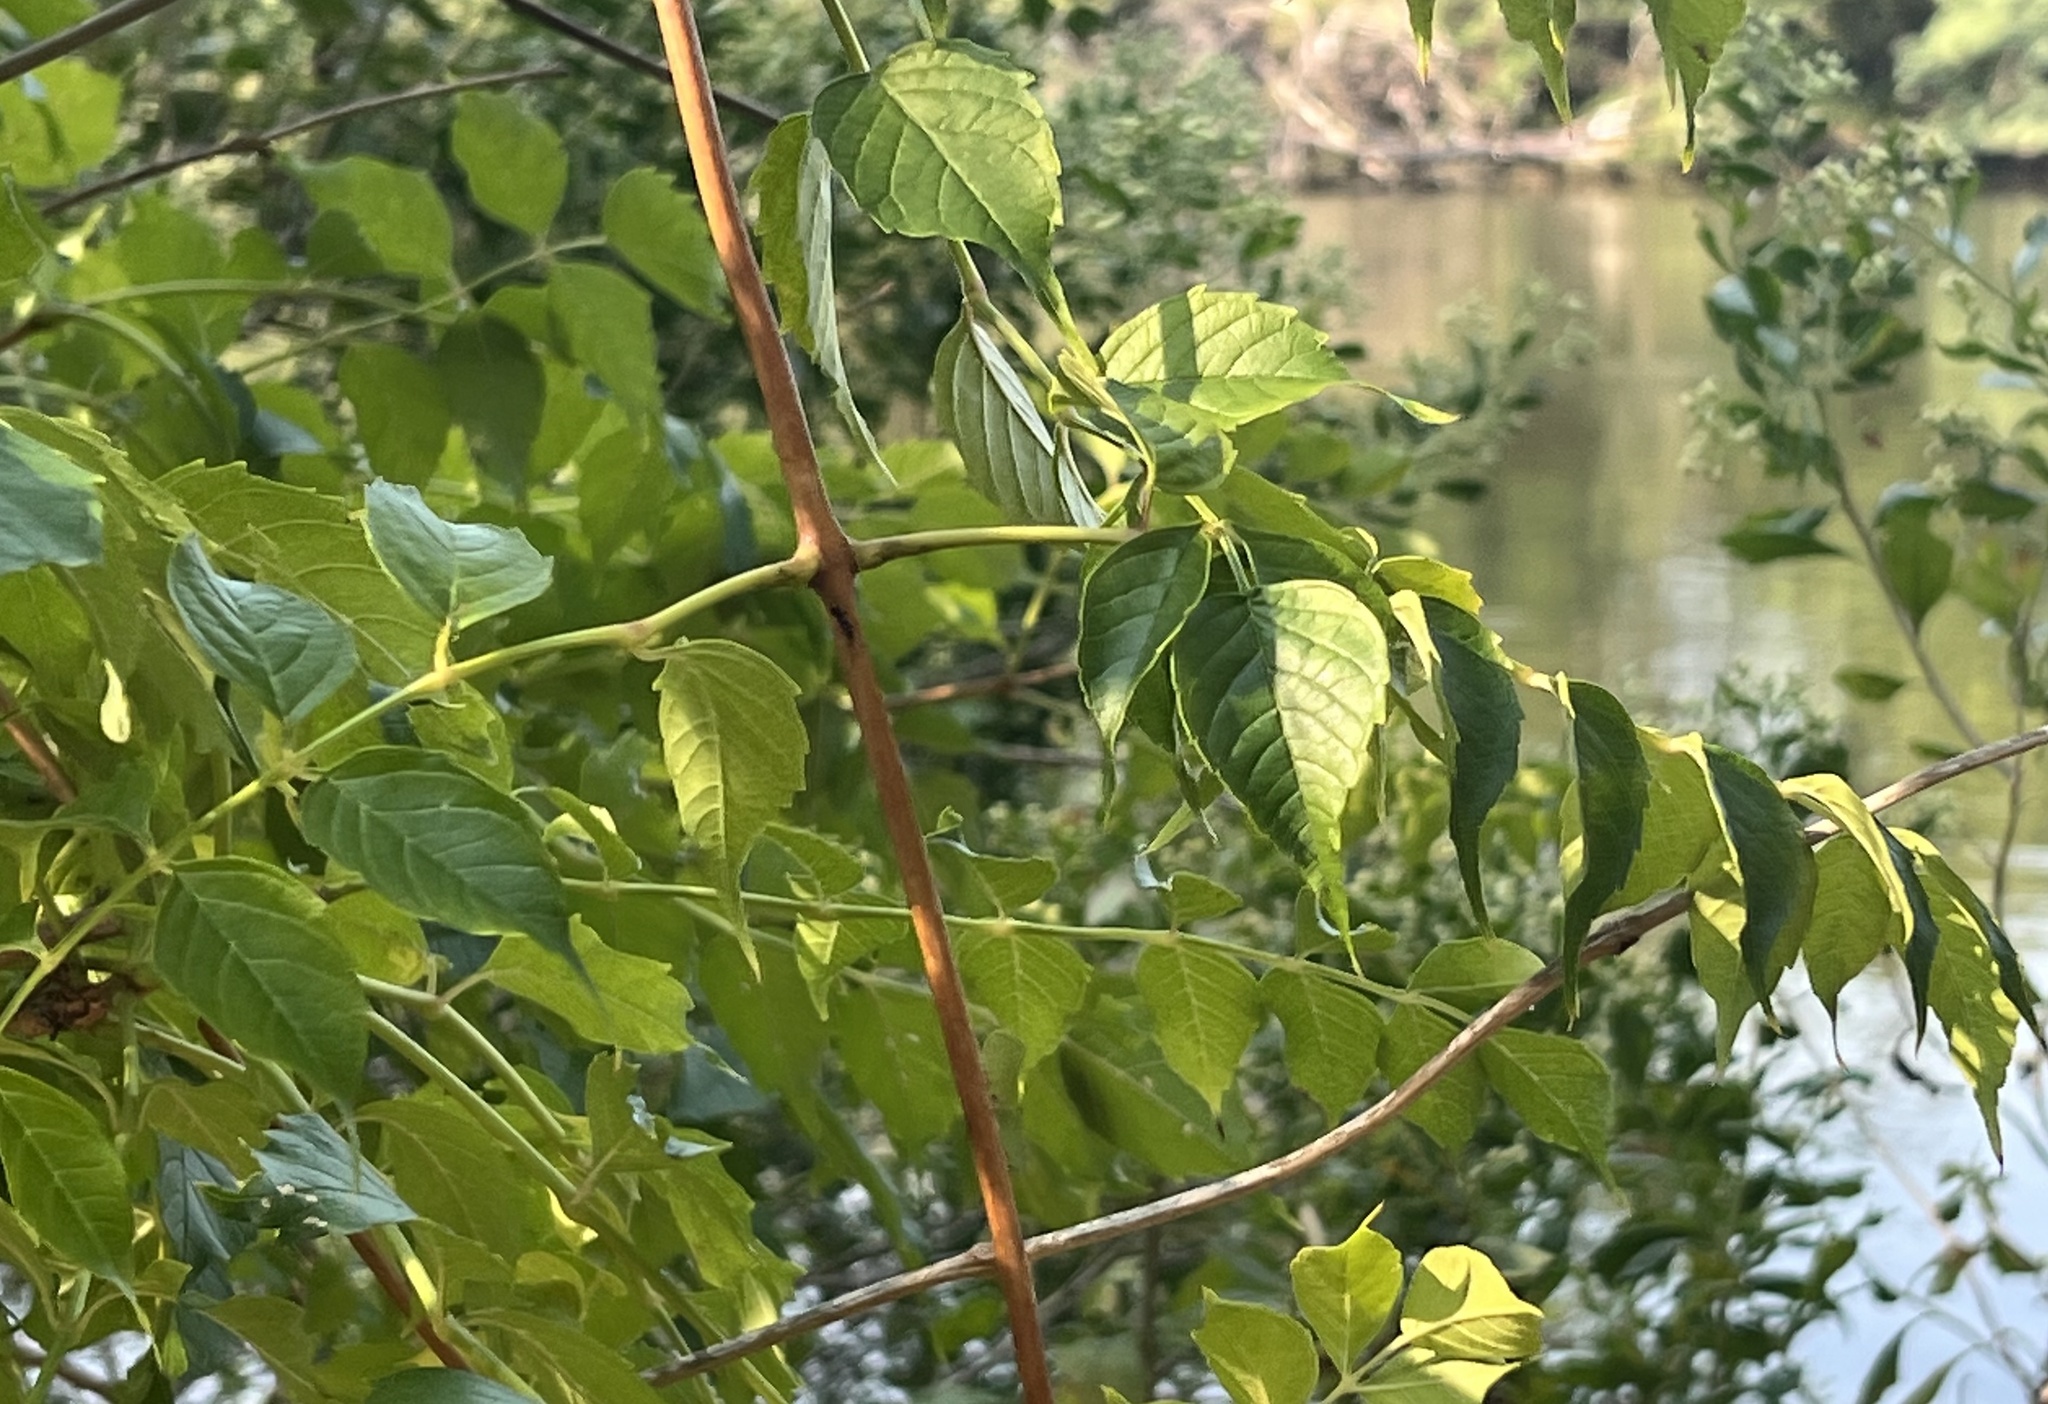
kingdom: Plantae
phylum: Tracheophyta
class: Magnoliopsida
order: Lamiales
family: Bignoniaceae
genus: Campsis
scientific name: Campsis radicans
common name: Trumpet-creeper
